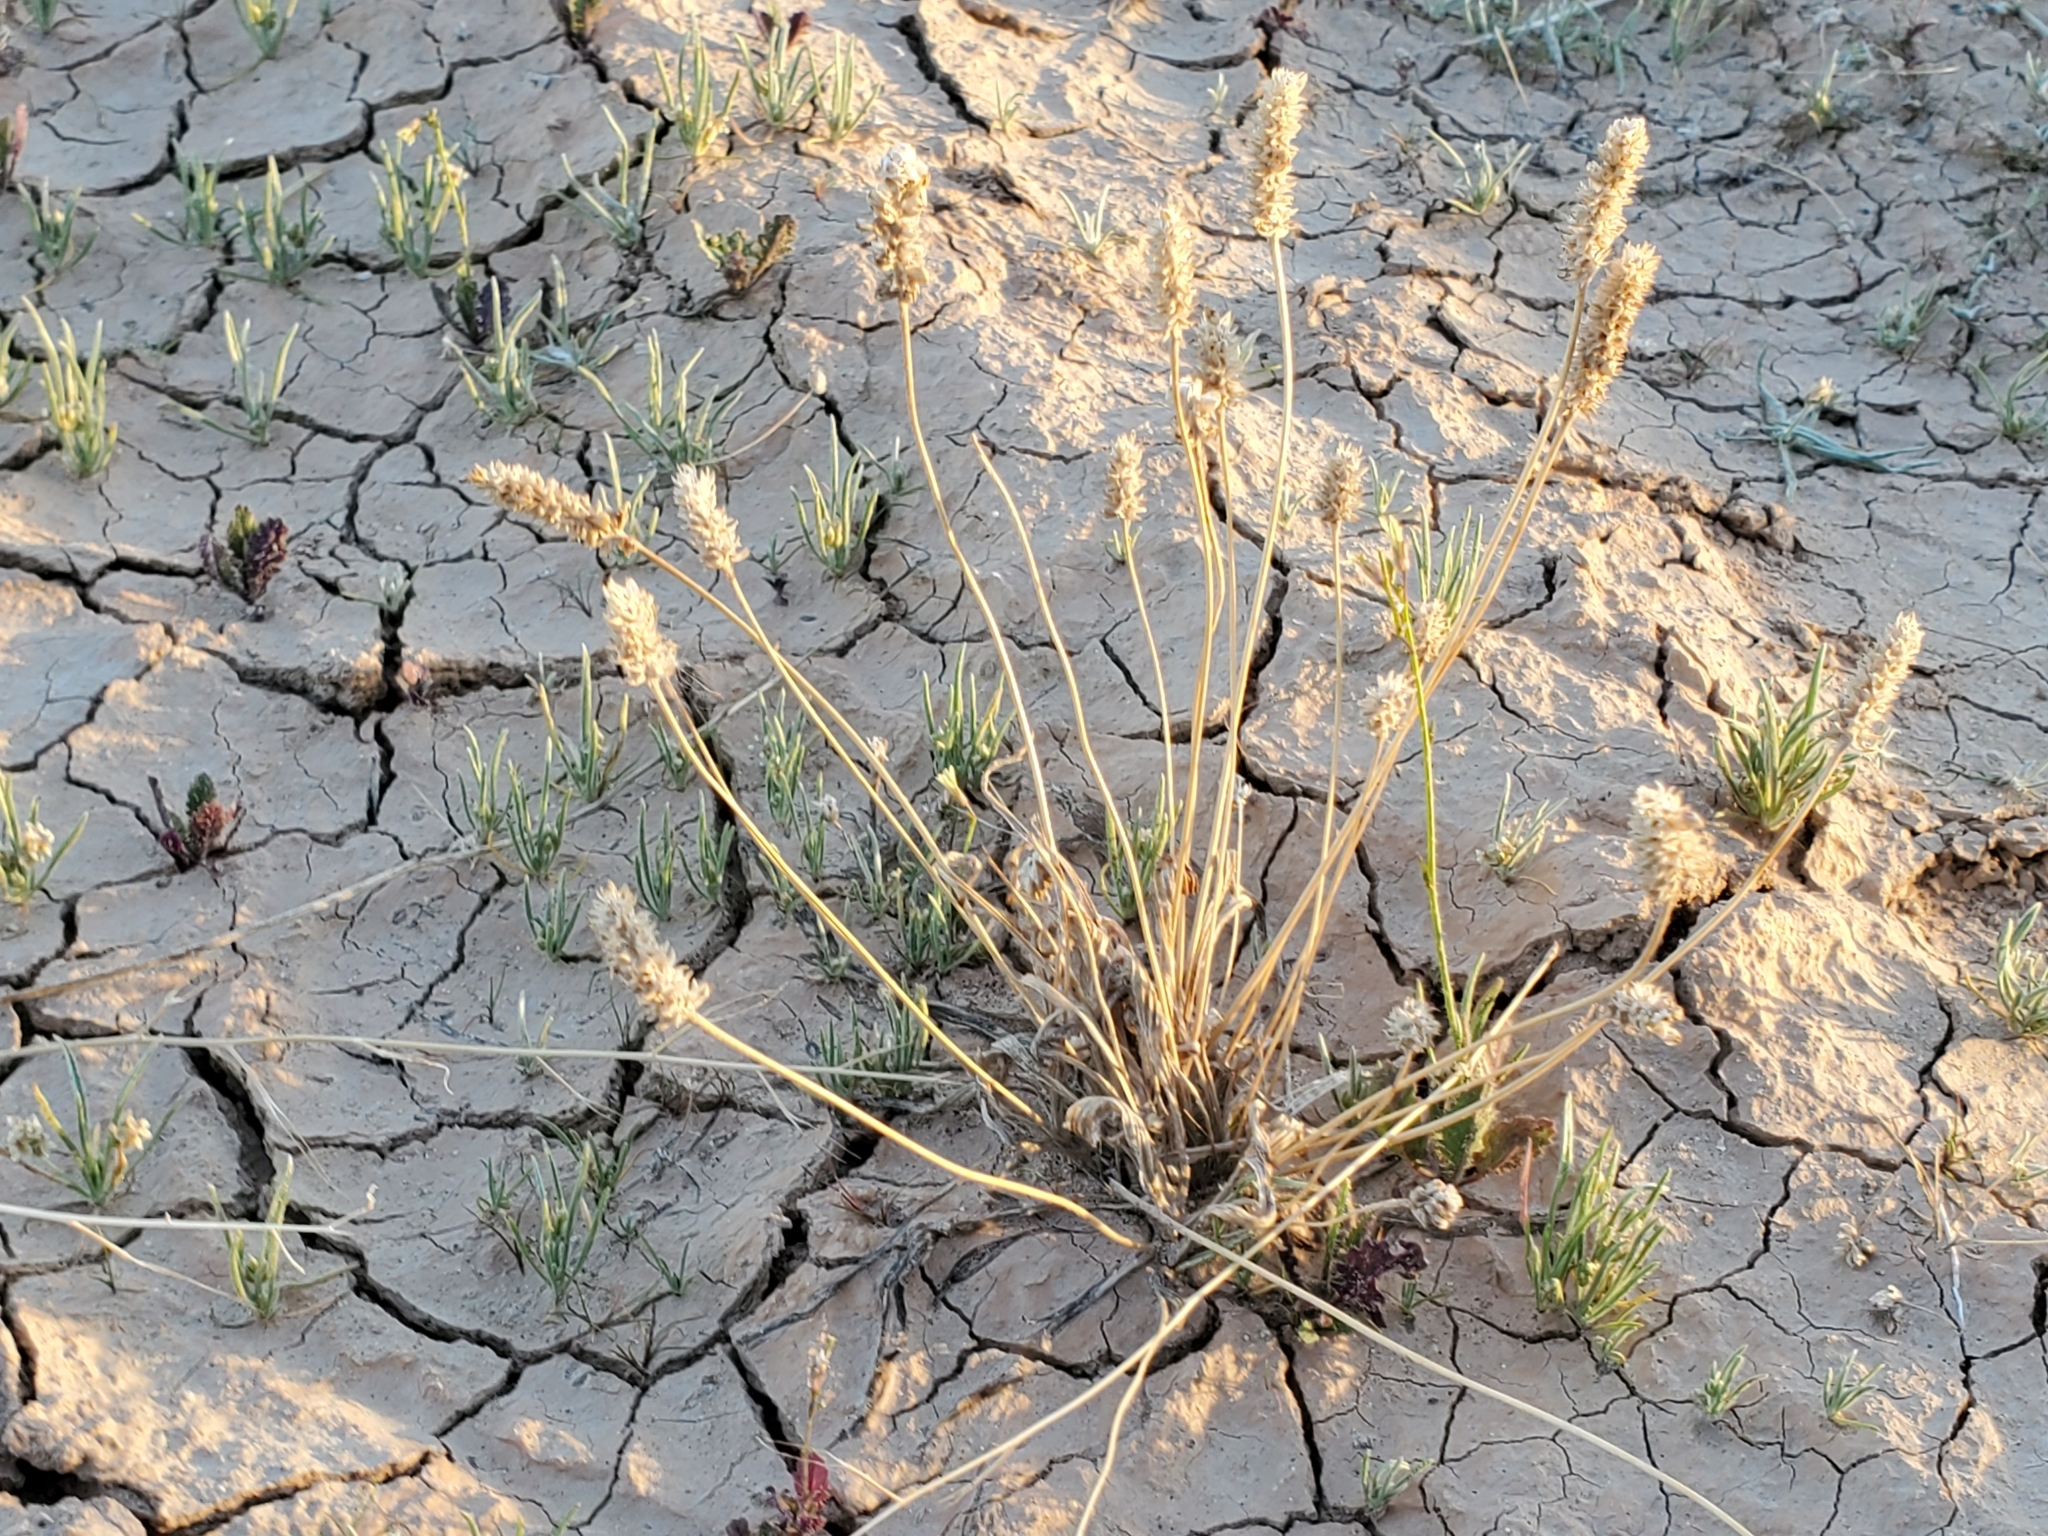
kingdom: Plantae
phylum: Tracheophyta
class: Magnoliopsida
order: Lamiales
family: Plantaginaceae
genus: Plantago
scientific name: Plantago ovata
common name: Blond plantain
